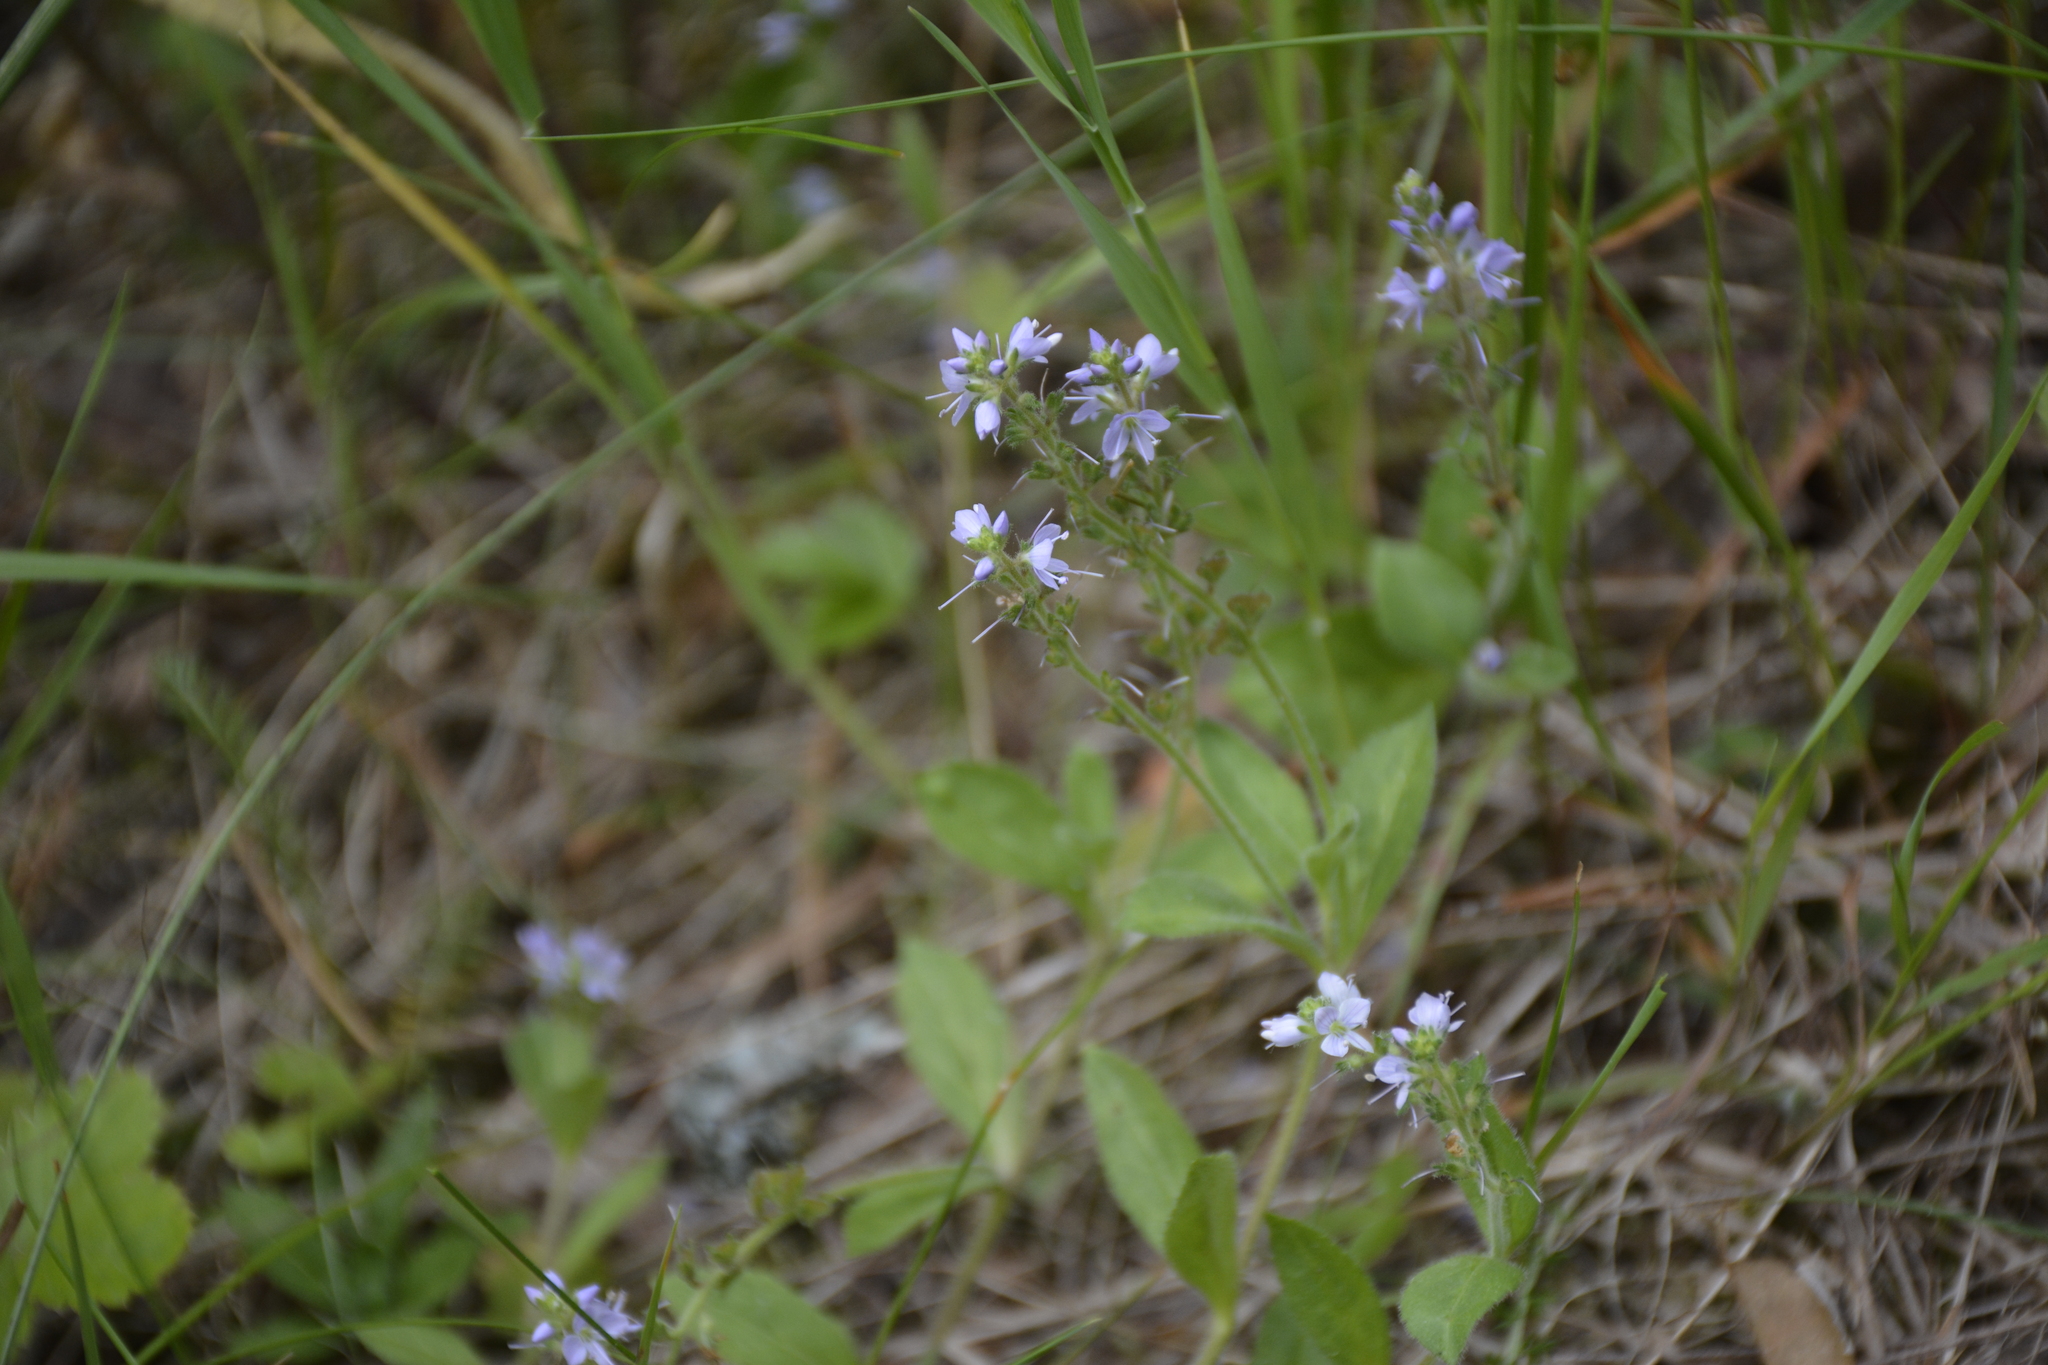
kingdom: Plantae
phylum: Tracheophyta
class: Magnoliopsida
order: Lamiales
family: Plantaginaceae
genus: Veronica
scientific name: Veronica officinalis
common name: Common speedwell
